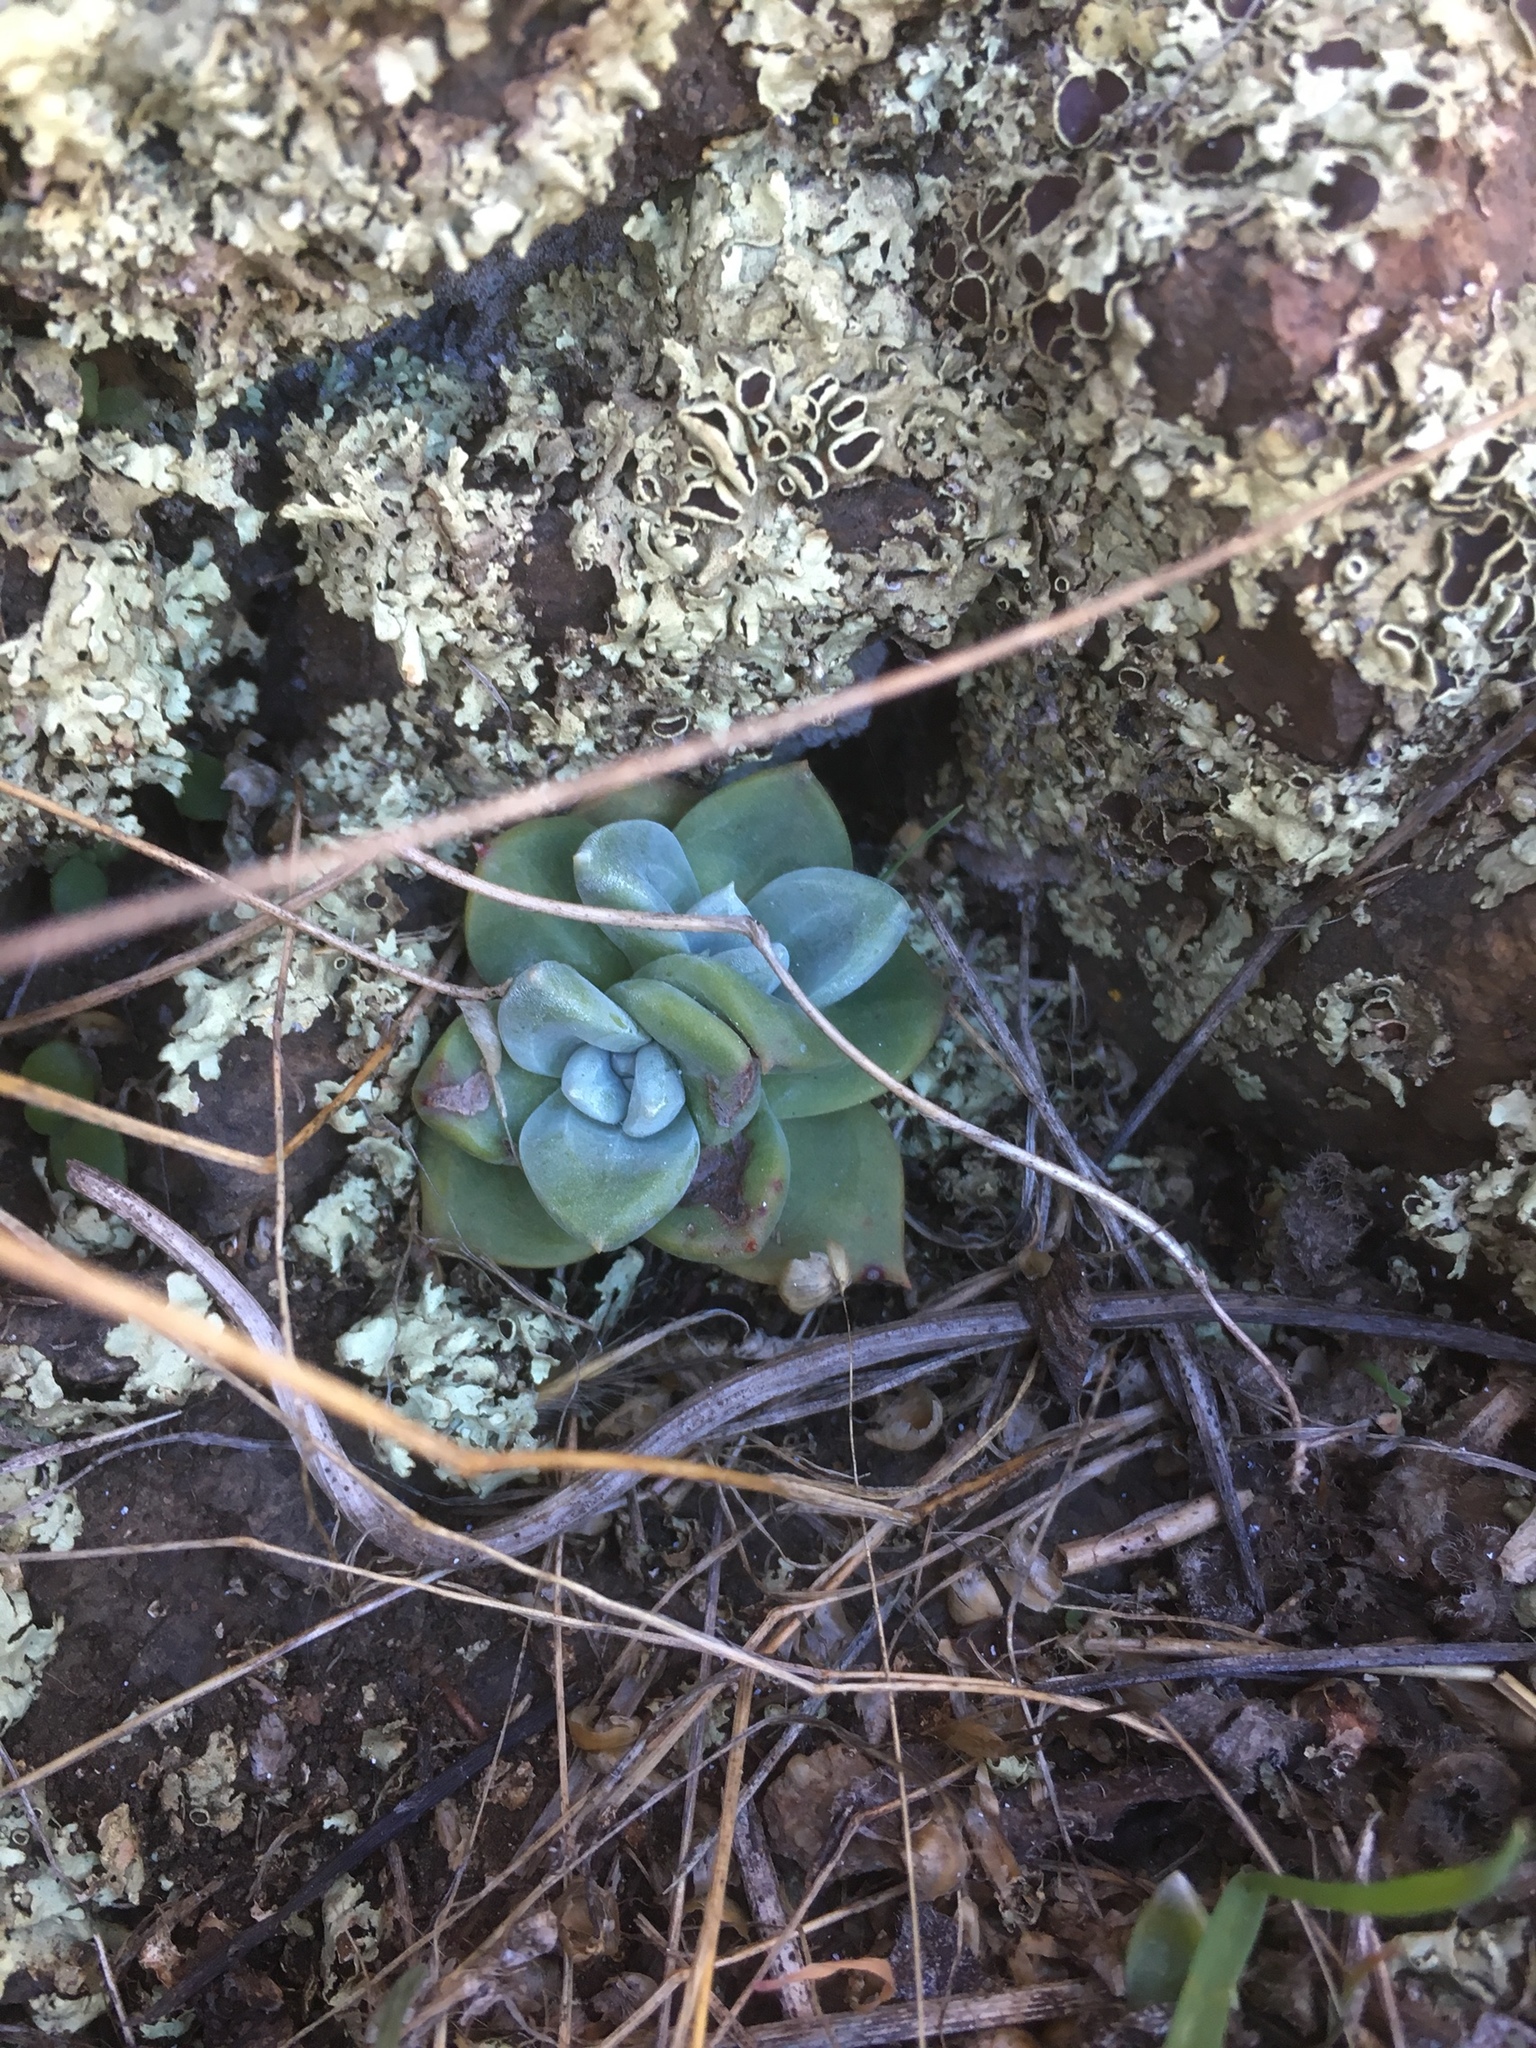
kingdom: Plantae
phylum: Tracheophyta
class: Magnoliopsida
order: Saxifragales
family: Crassulaceae
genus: Dudleya
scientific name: Dudleya farinosa
